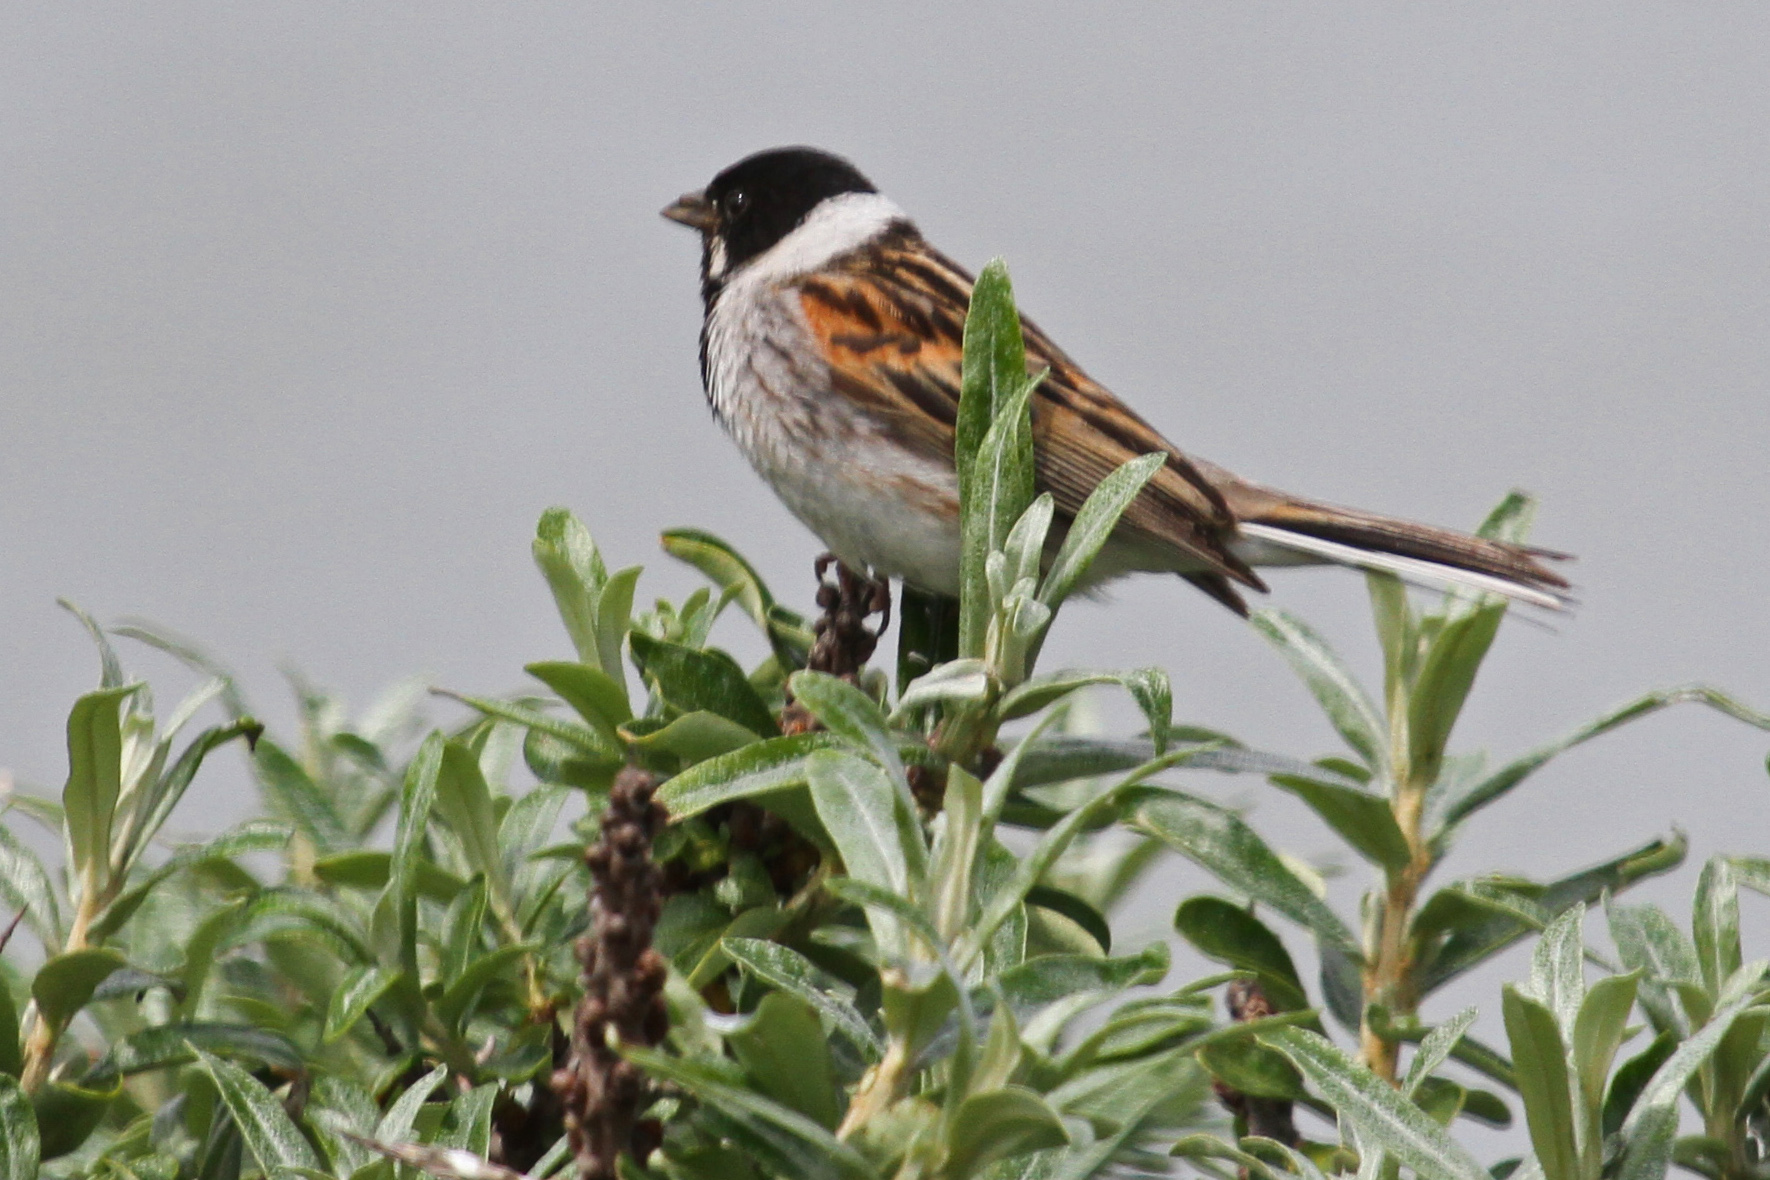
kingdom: Animalia
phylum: Chordata
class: Aves
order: Passeriformes
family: Emberizidae
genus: Emberiza
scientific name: Emberiza schoeniclus
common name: Reed bunting
